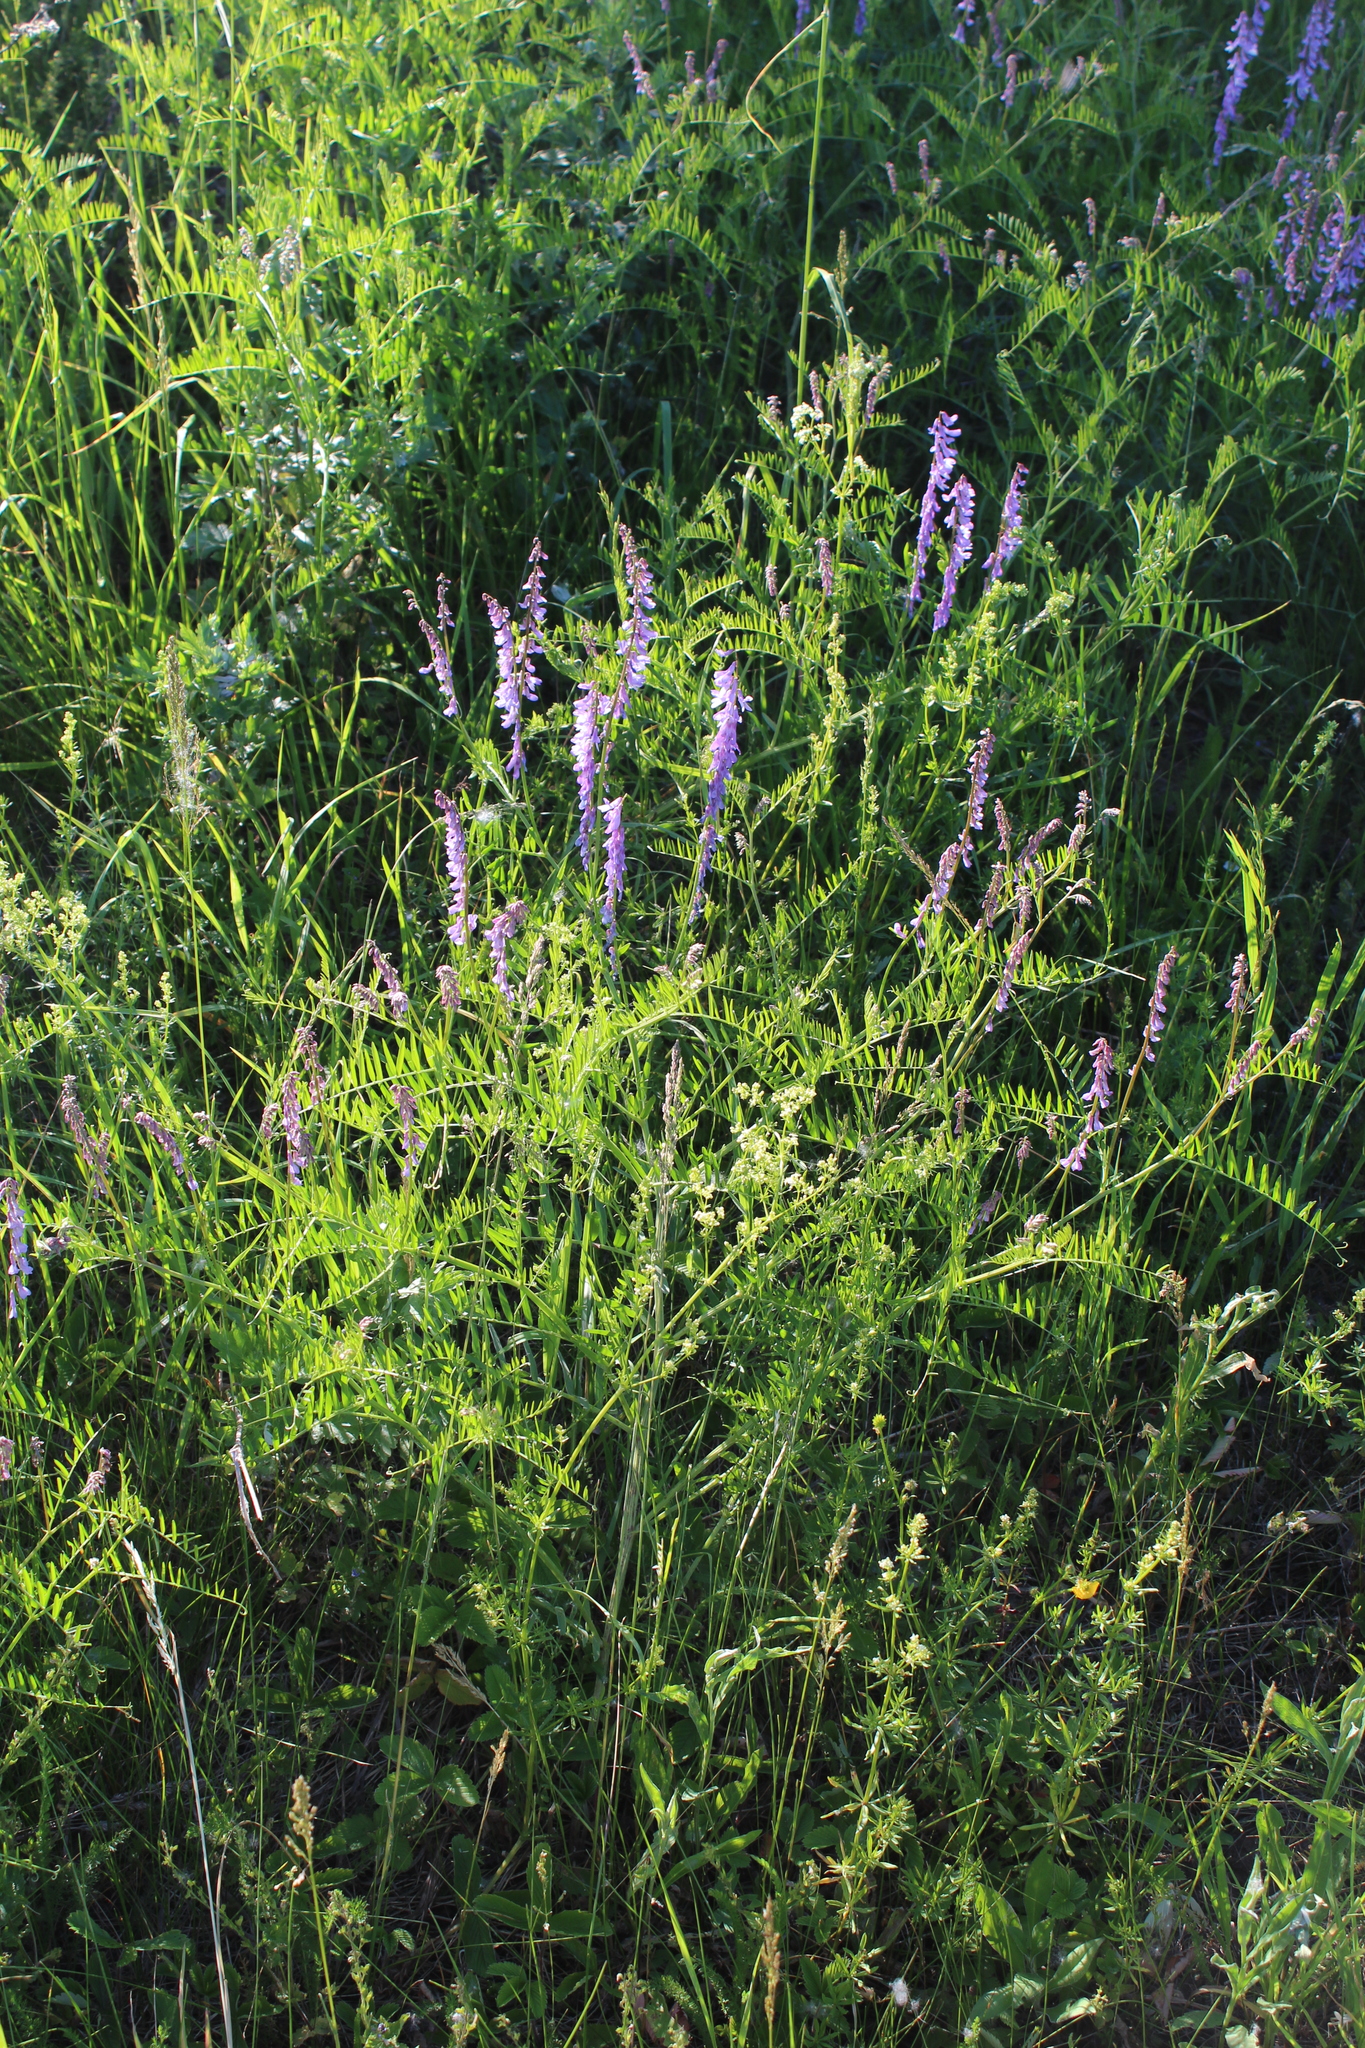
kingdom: Plantae
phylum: Tracheophyta
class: Magnoliopsida
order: Fabales
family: Fabaceae
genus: Vicia
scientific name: Vicia tenuifolia
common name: Fine-leaved vetch
